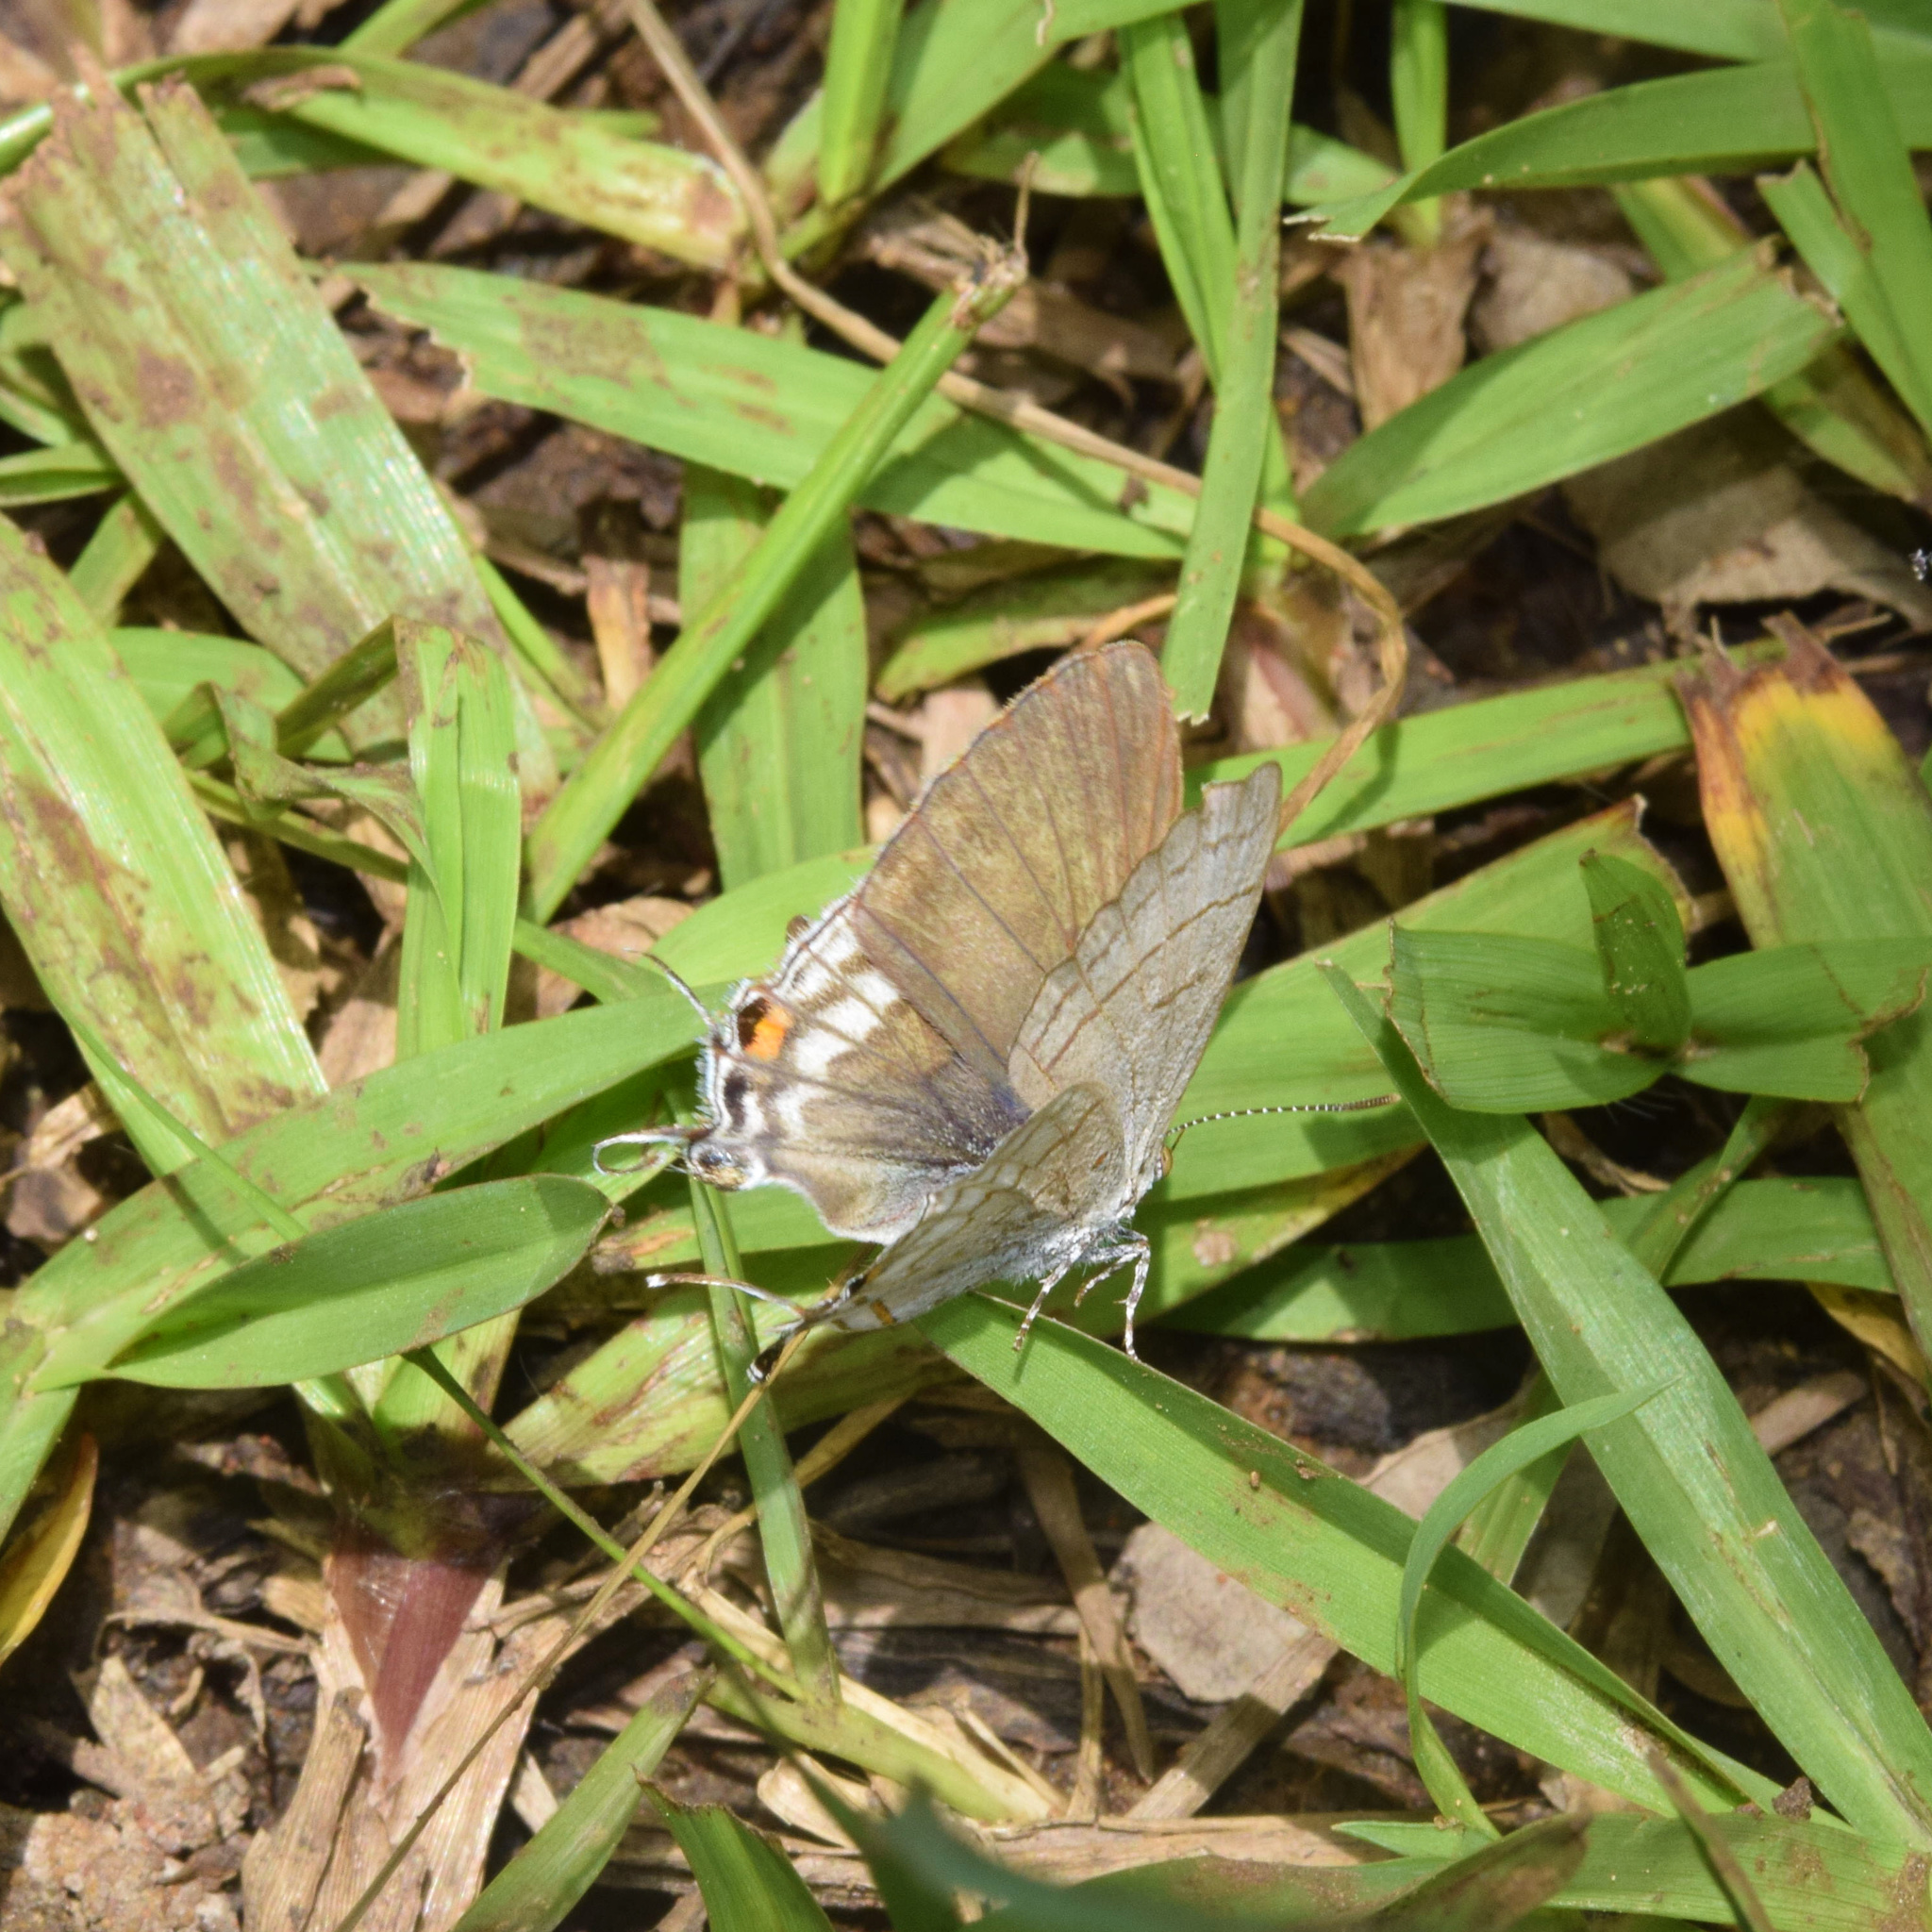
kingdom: Animalia
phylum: Arthropoda
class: Insecta
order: Lepidoptera
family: Lycaenidae
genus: Hypolycaena
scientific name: Hypolycaena philippus
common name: Common hairstreak
